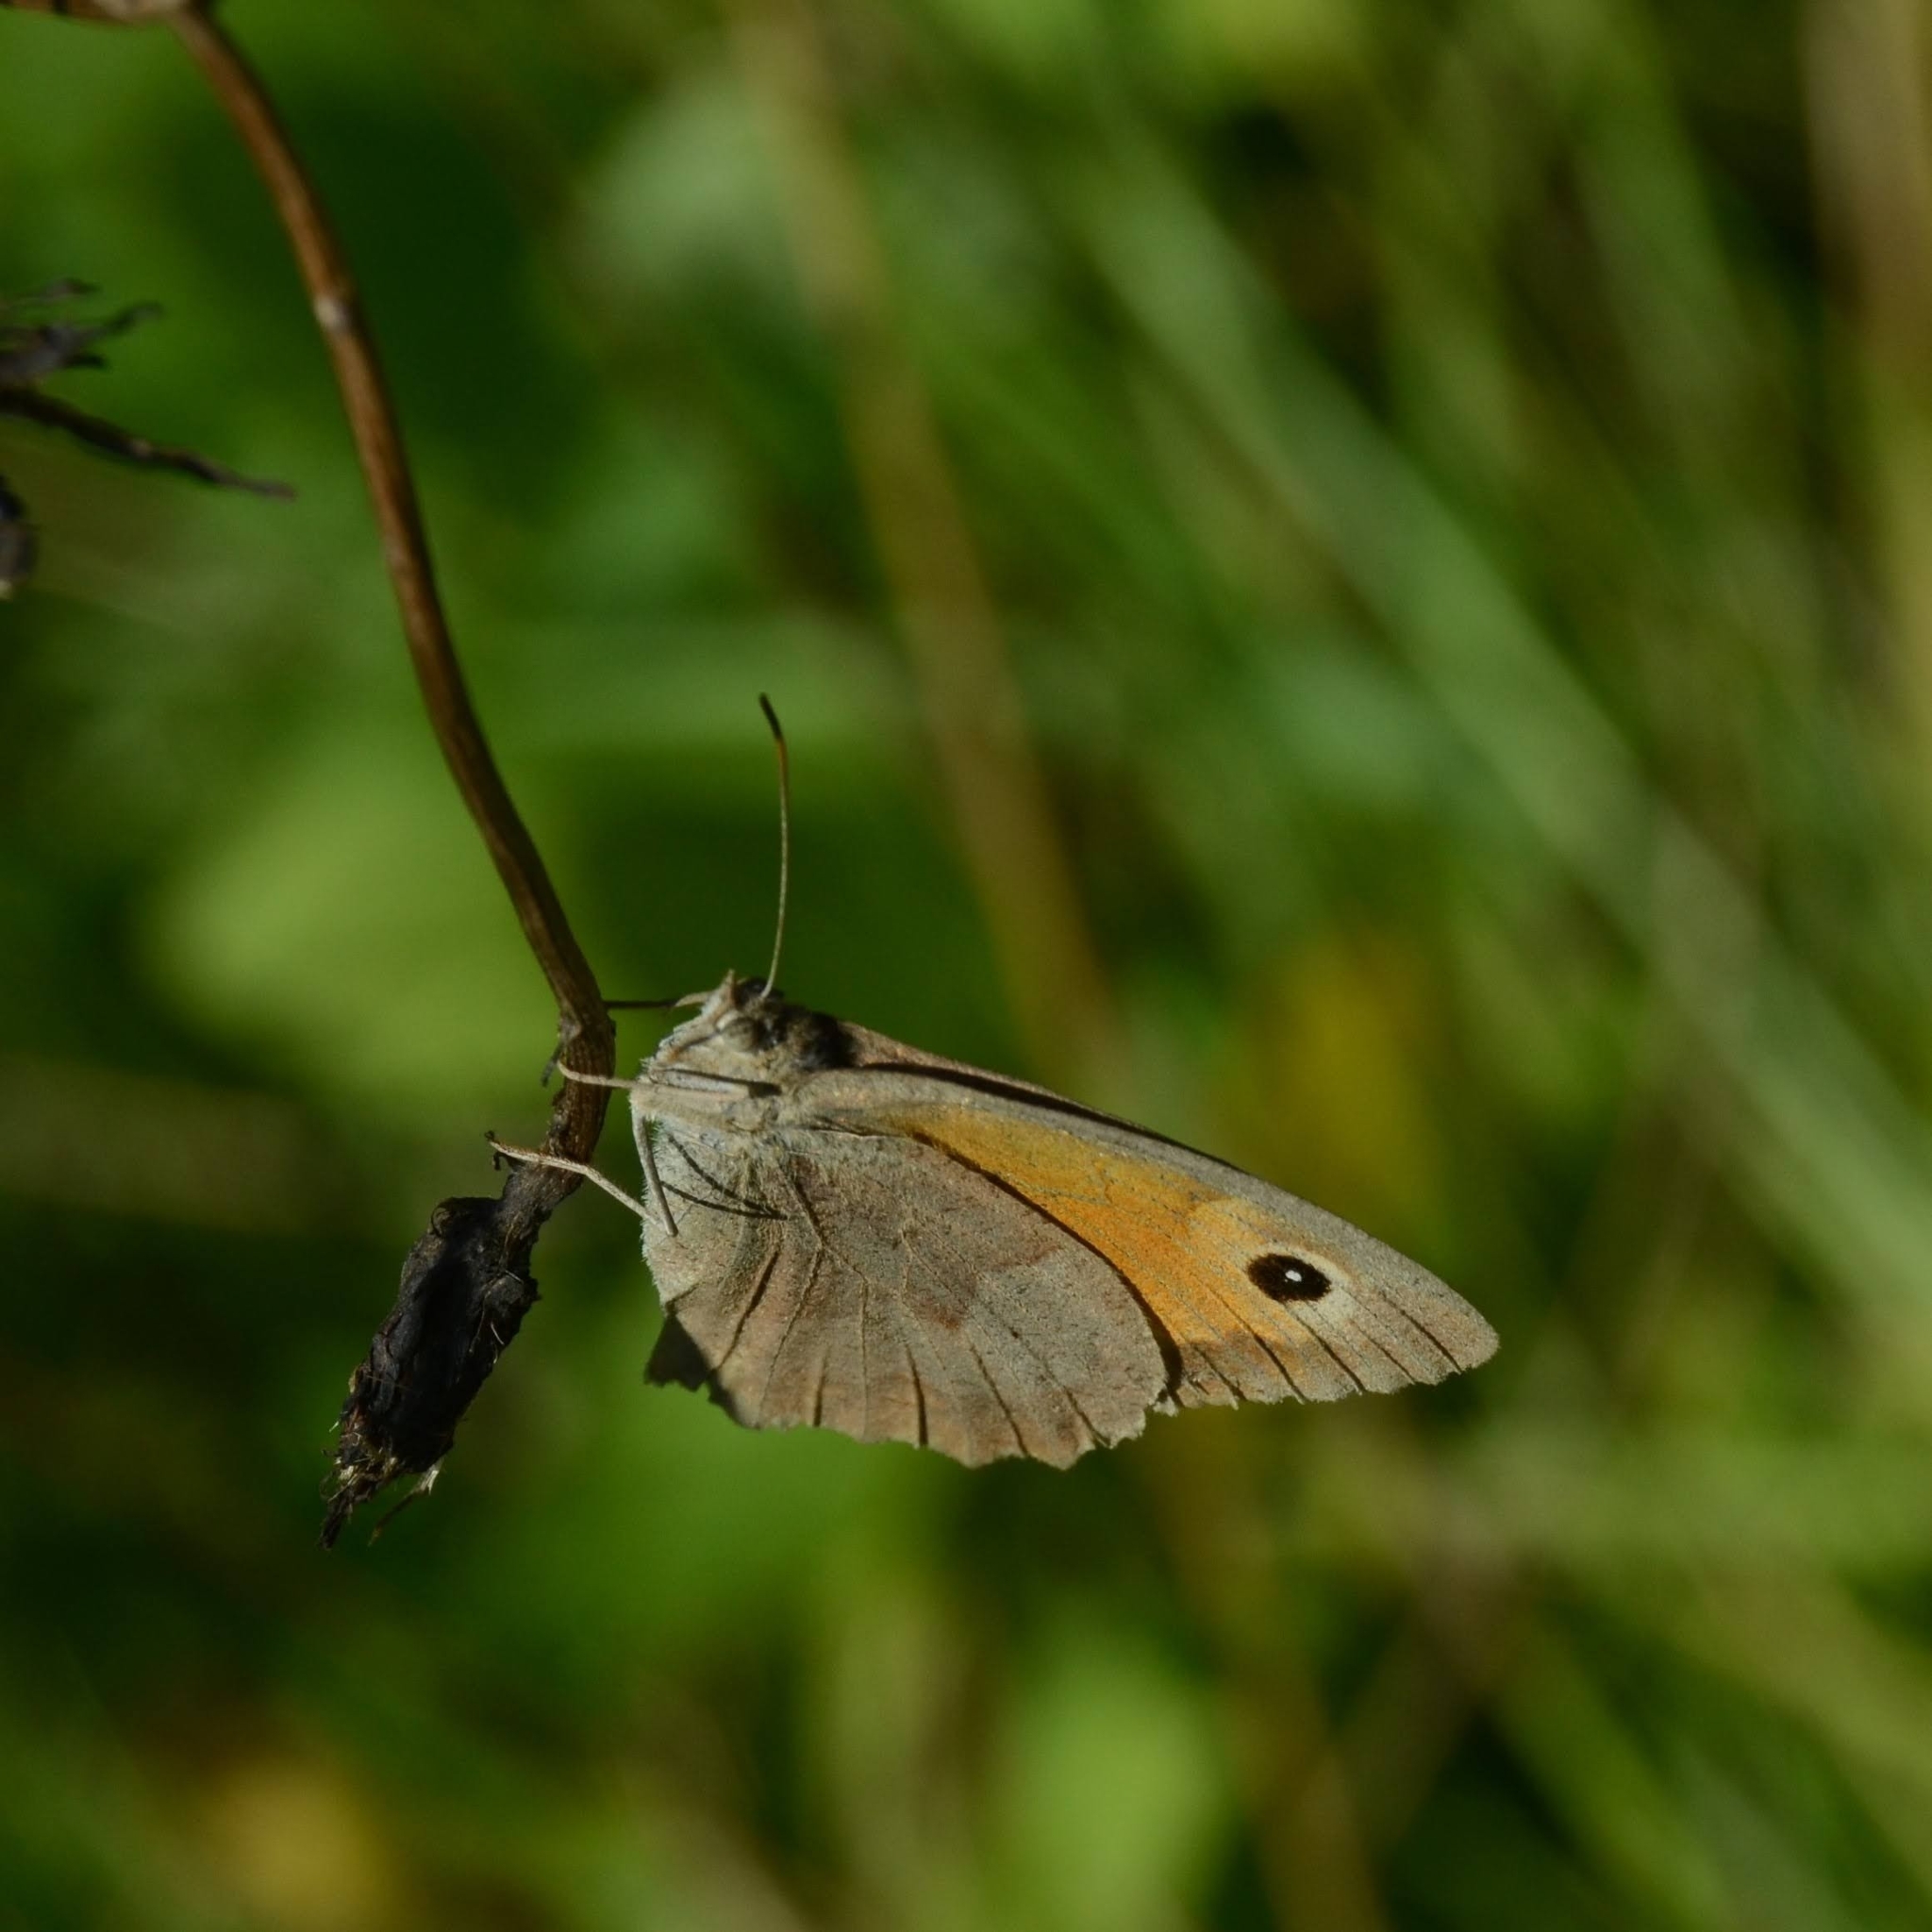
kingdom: Animalia
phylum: Arthropoda
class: Insecta
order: Lepidoptera
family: Nymphalidae
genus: Maniola
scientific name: Maniola jurtina
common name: Meadow brown
